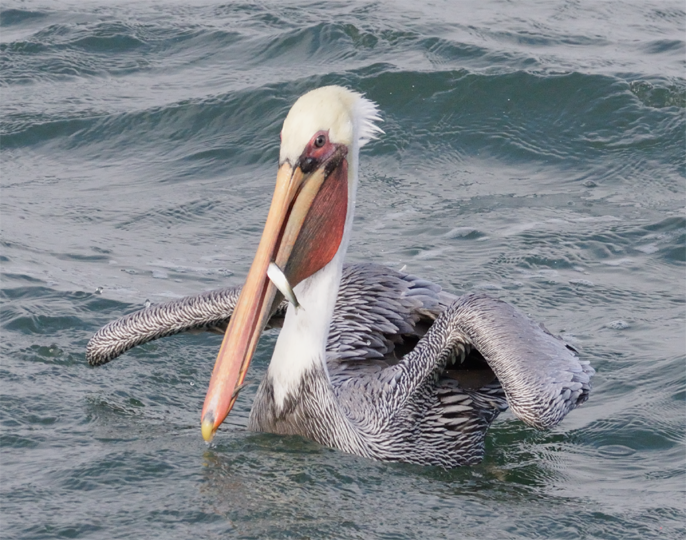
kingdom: Animalia
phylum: Chordata
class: Aves
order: Pelecaniformes
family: Pelecanidae
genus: Pelecanus
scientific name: Pelecanus occidentalis
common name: Brown pelican
